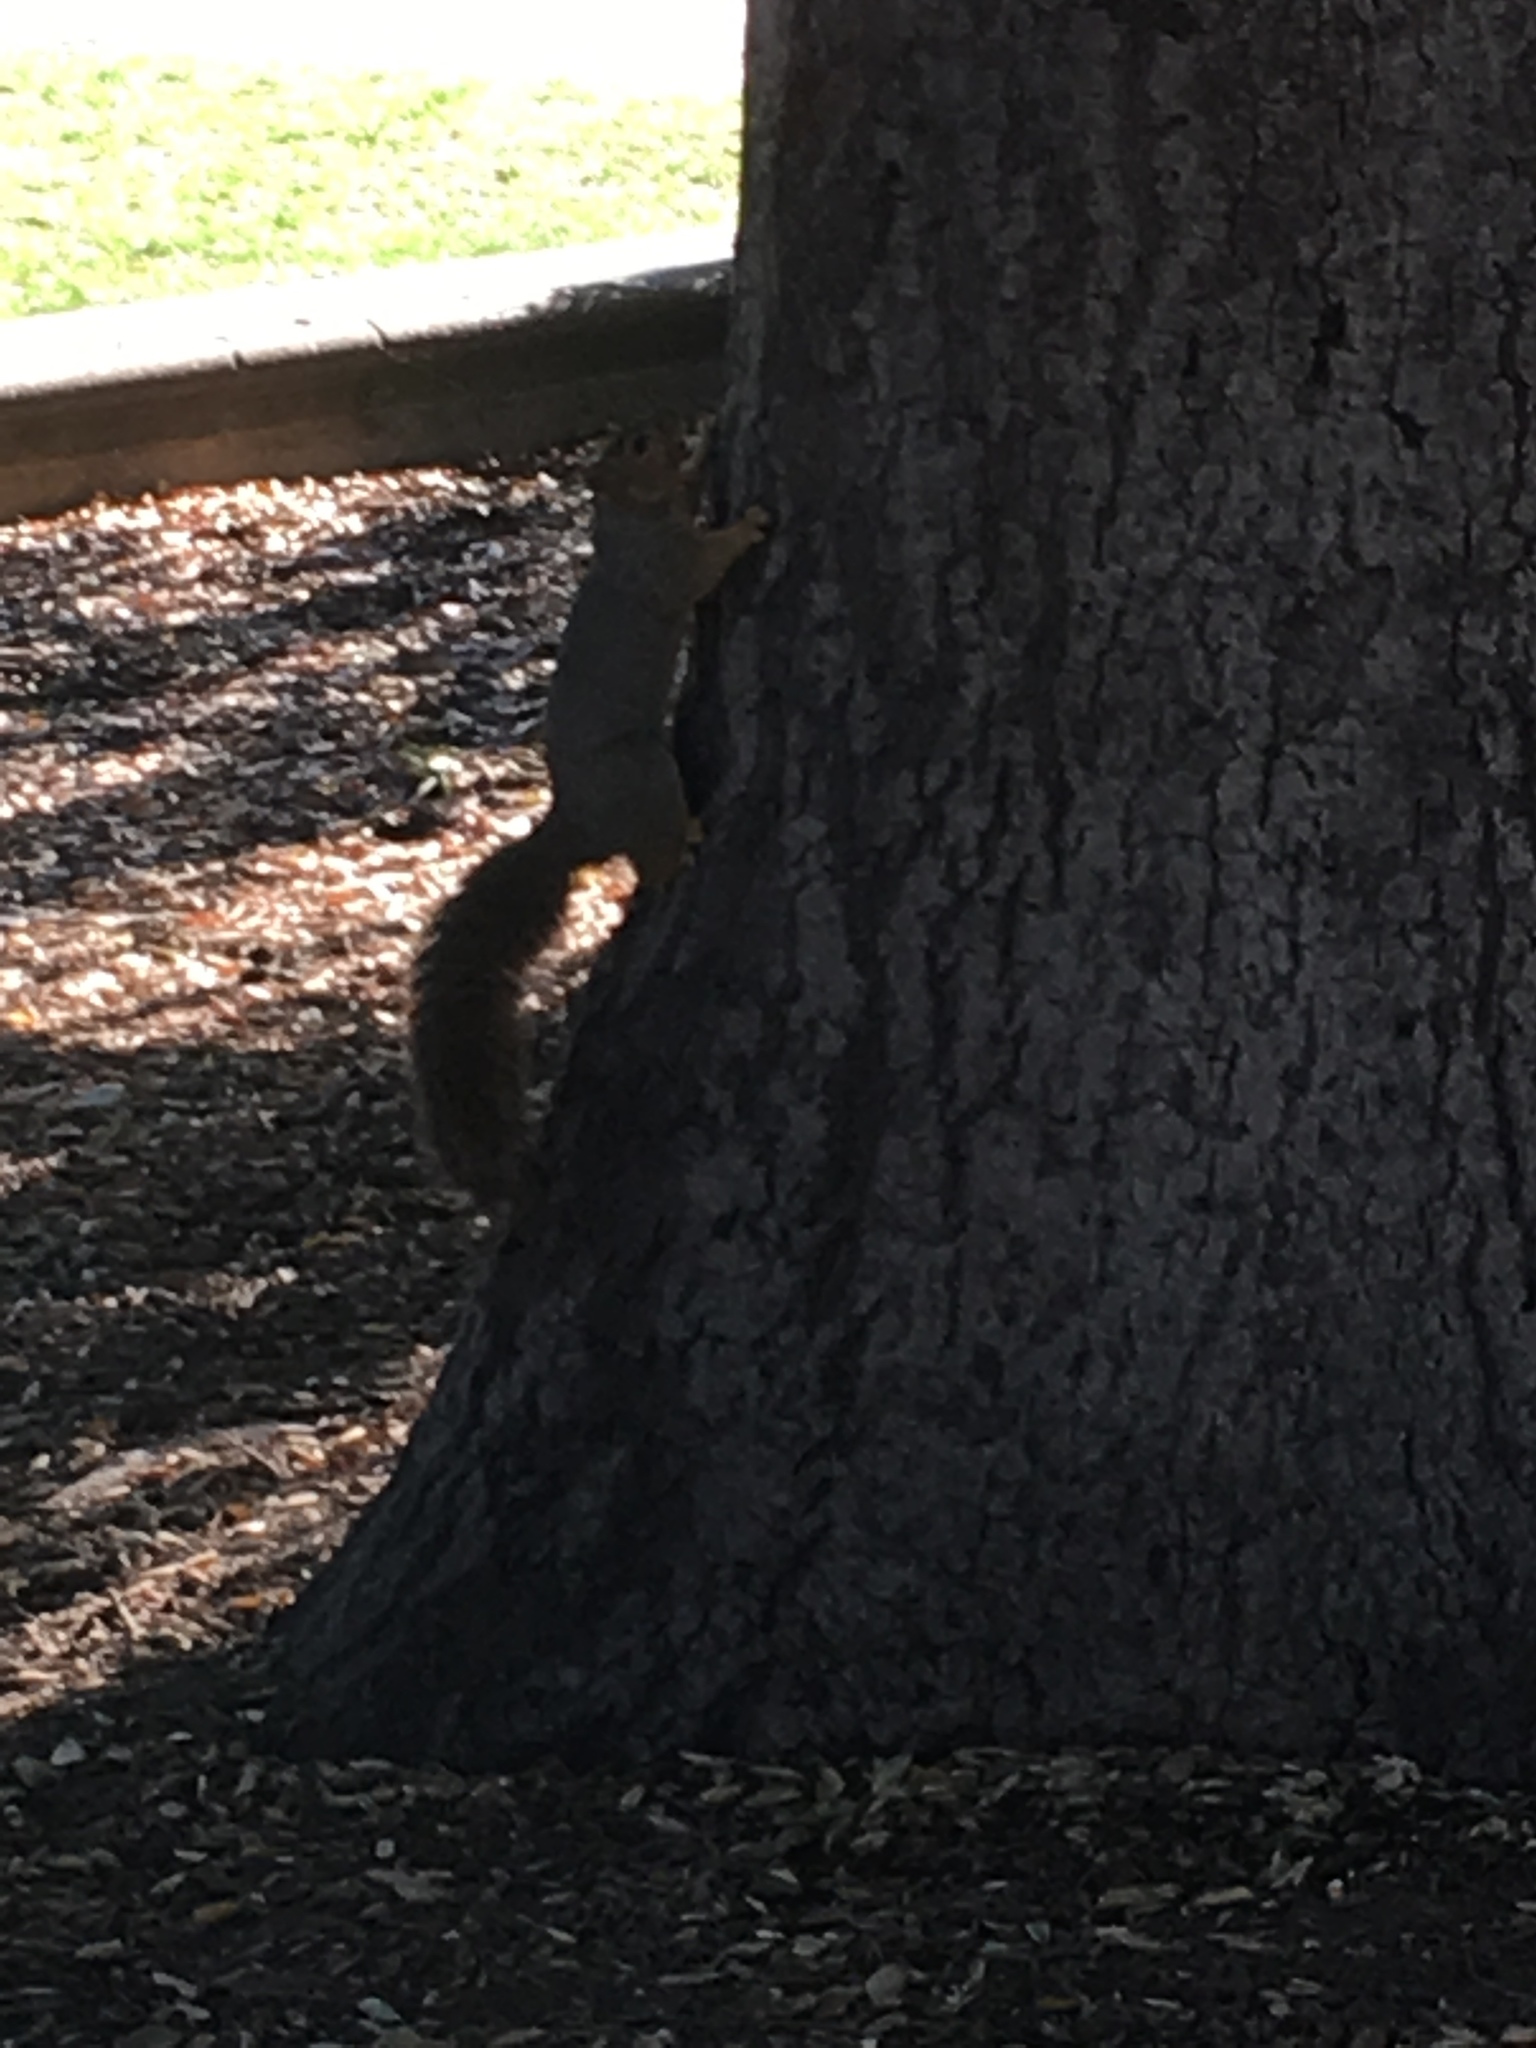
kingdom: Animalia
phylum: Chordata
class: Mammalia
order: Rodentia
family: Sciuridae
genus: Sciurus
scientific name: Sciurus niger
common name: Fox squirrel
